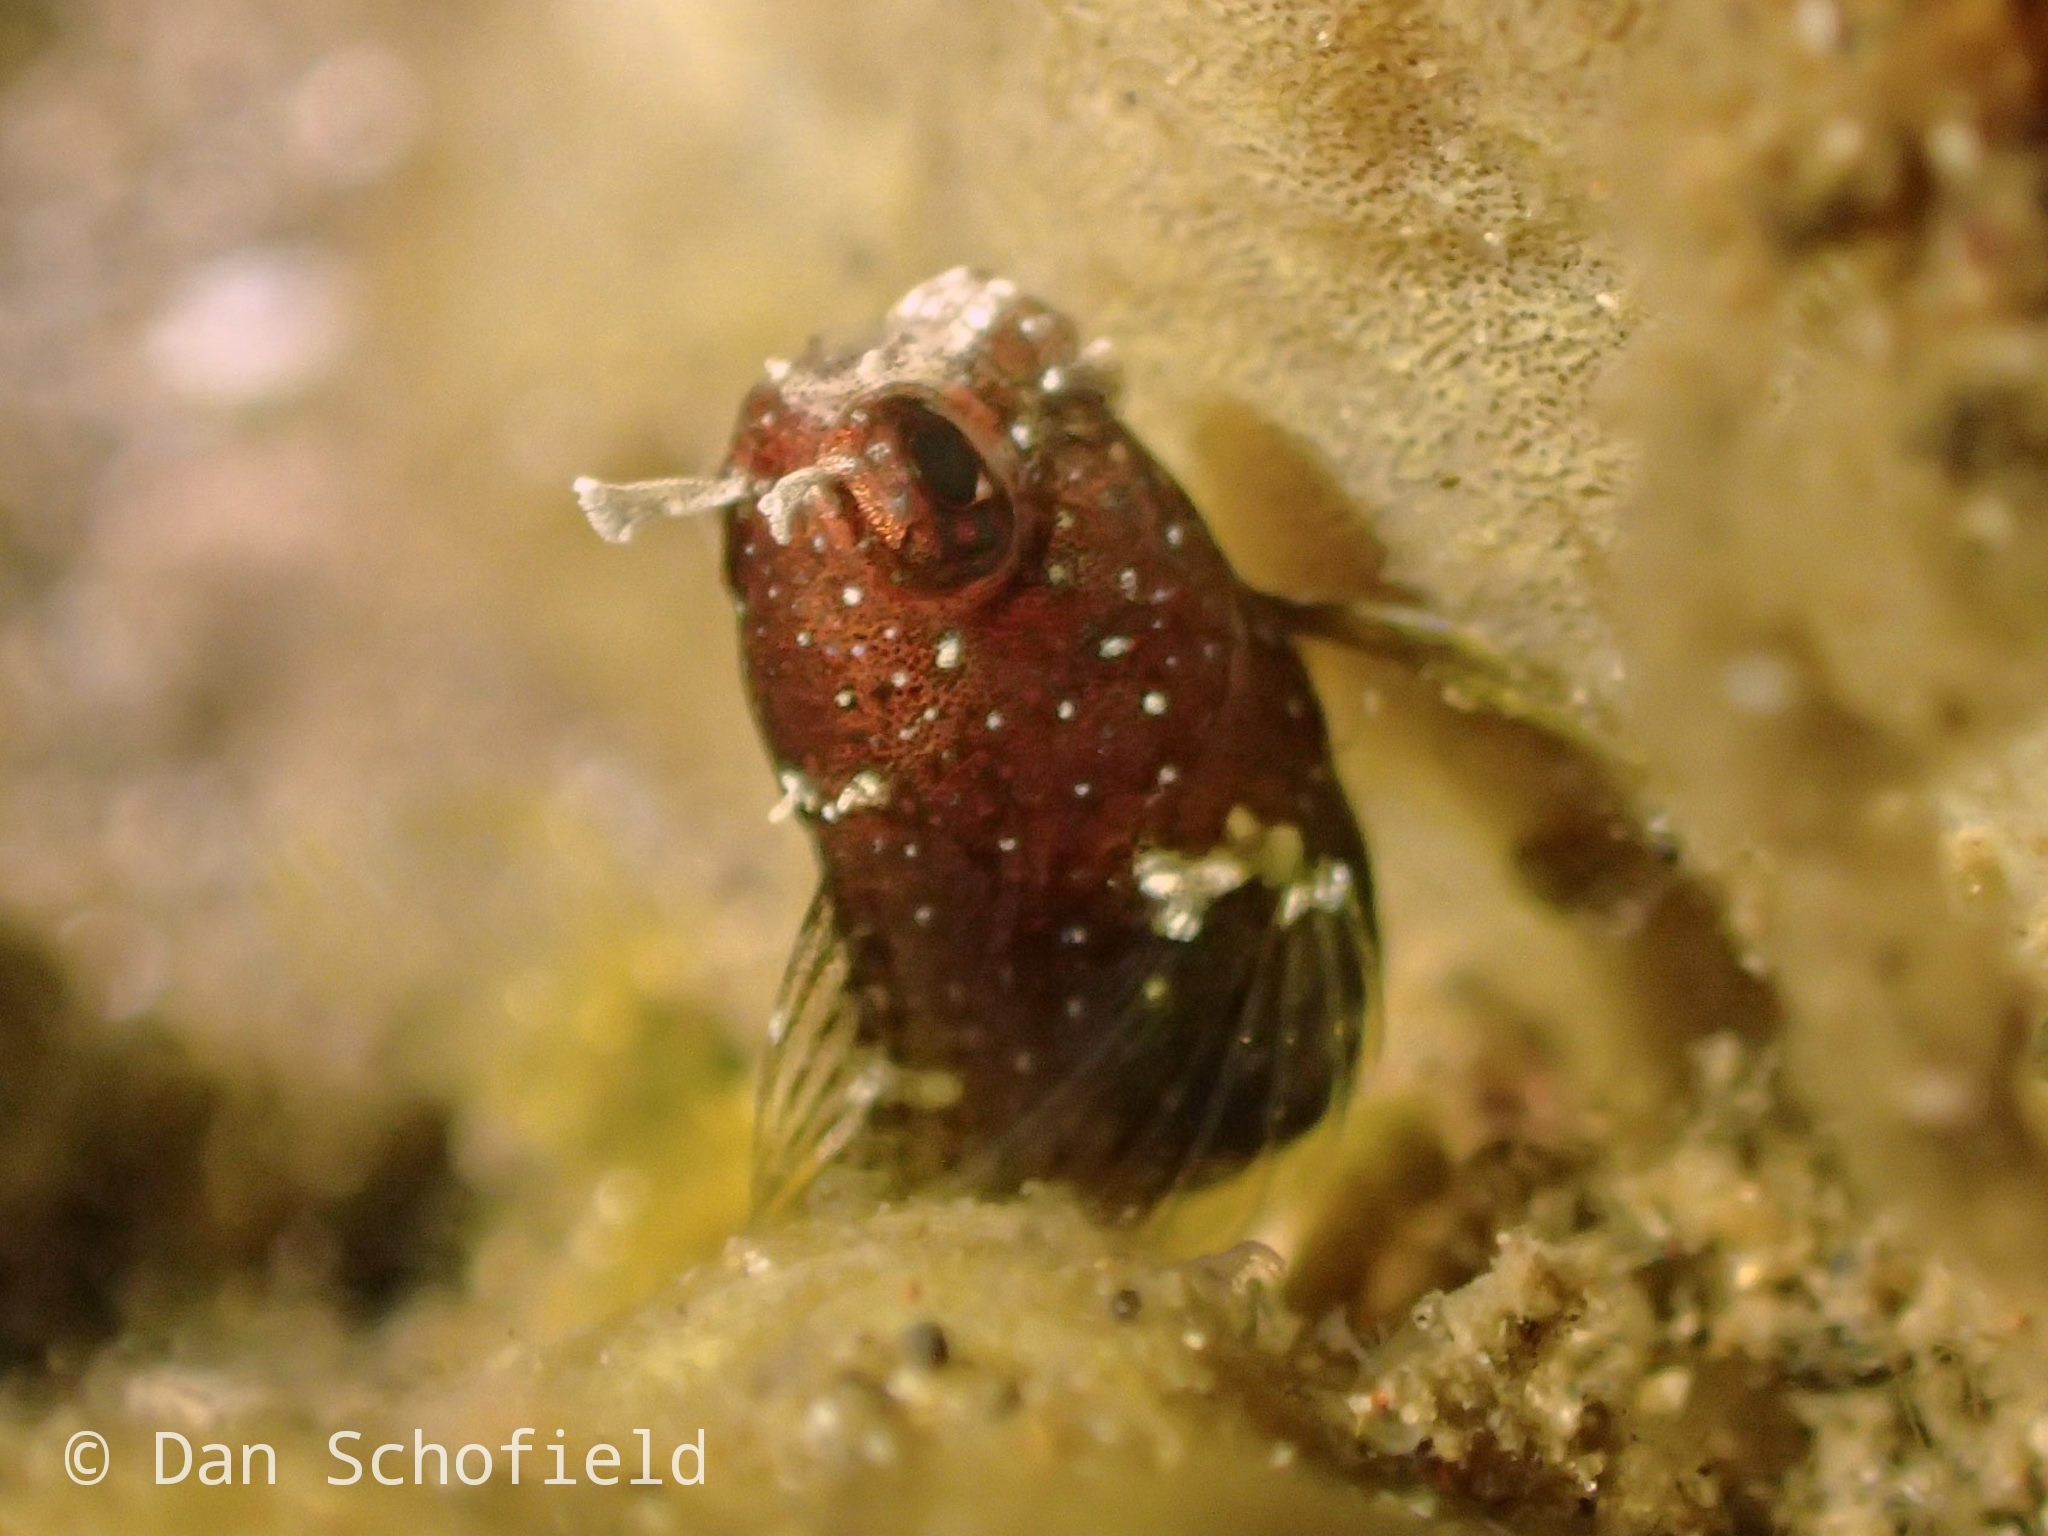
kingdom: Animalia
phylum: Chordata
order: Perciformes
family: Blenniidae
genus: Salarias
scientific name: Salarias ramosus
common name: Snowflake blenny
